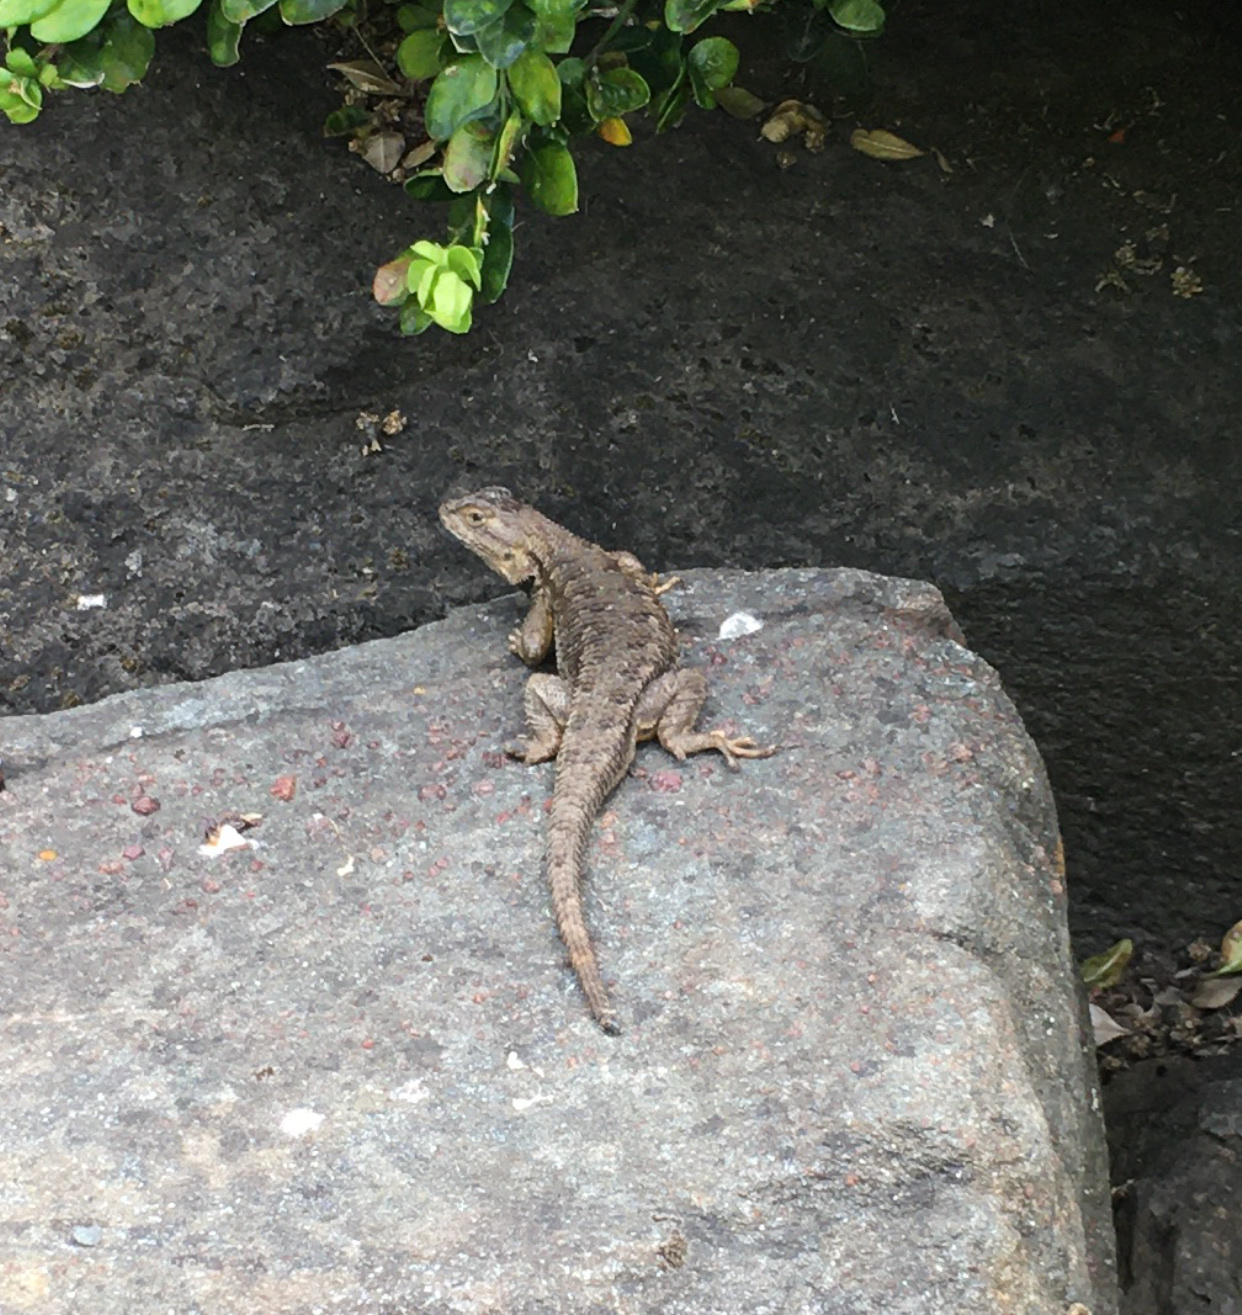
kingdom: Animalia
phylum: Chordata
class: Squamata
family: Phrynosomatidae
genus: Sceloporus
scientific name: Sceloporus occidentalis
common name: Western fence lizard
